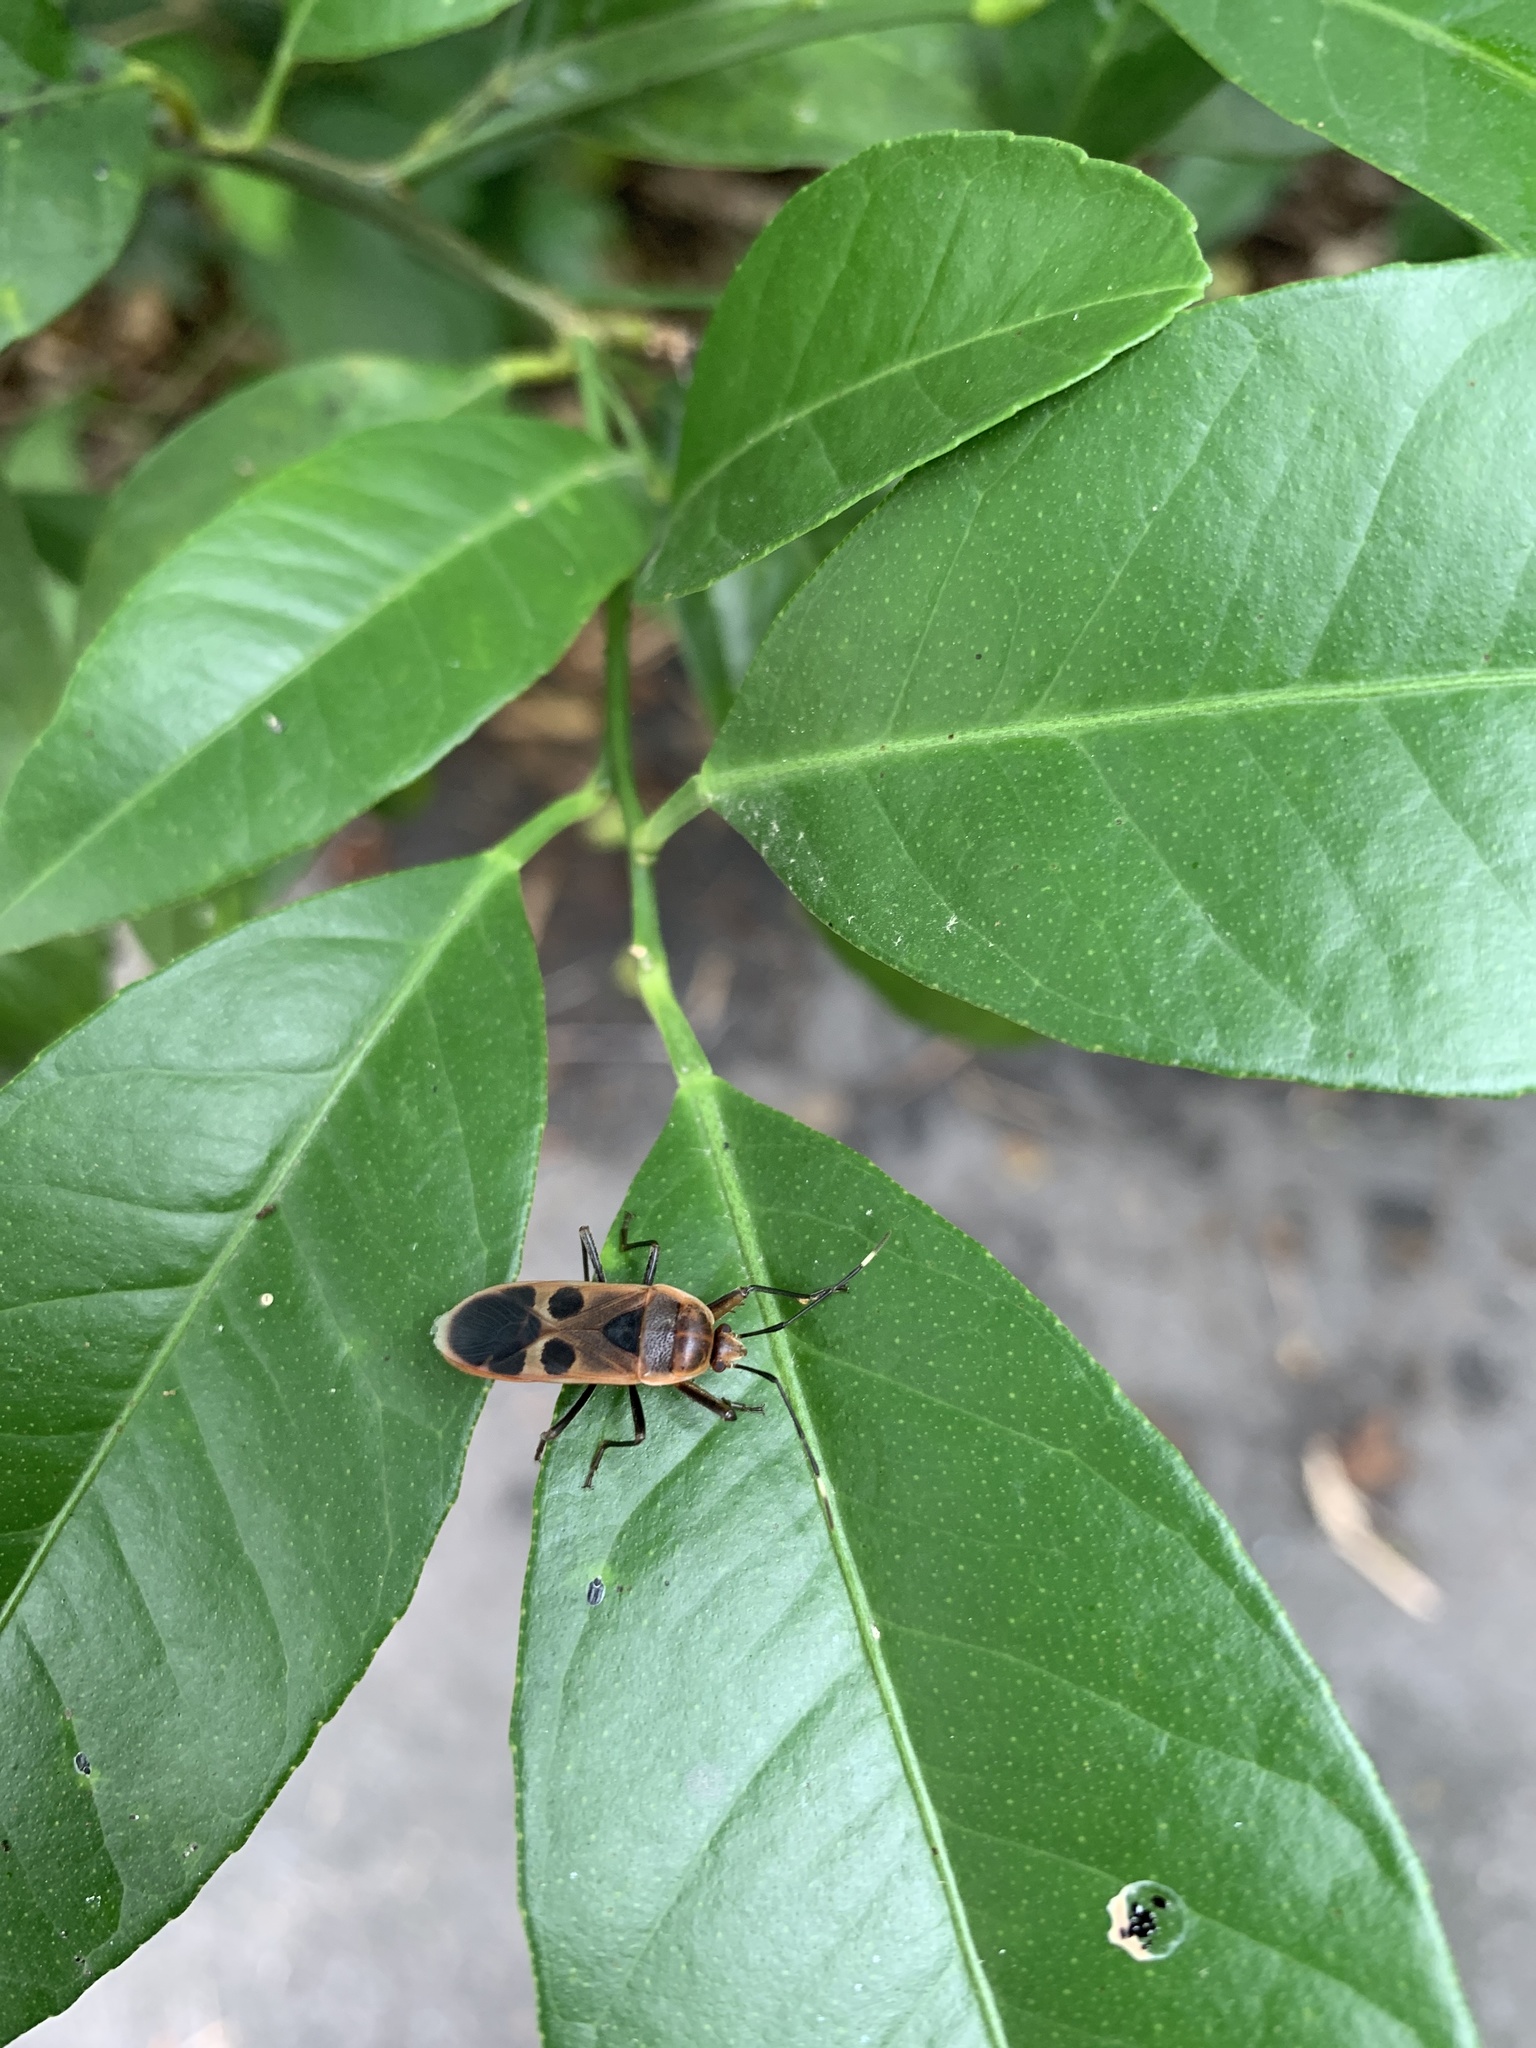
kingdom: Animalia
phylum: Arthropoda
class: Insecta
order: Hemiptera
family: Largidae
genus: Physopelta
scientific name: Physopelta gutta
